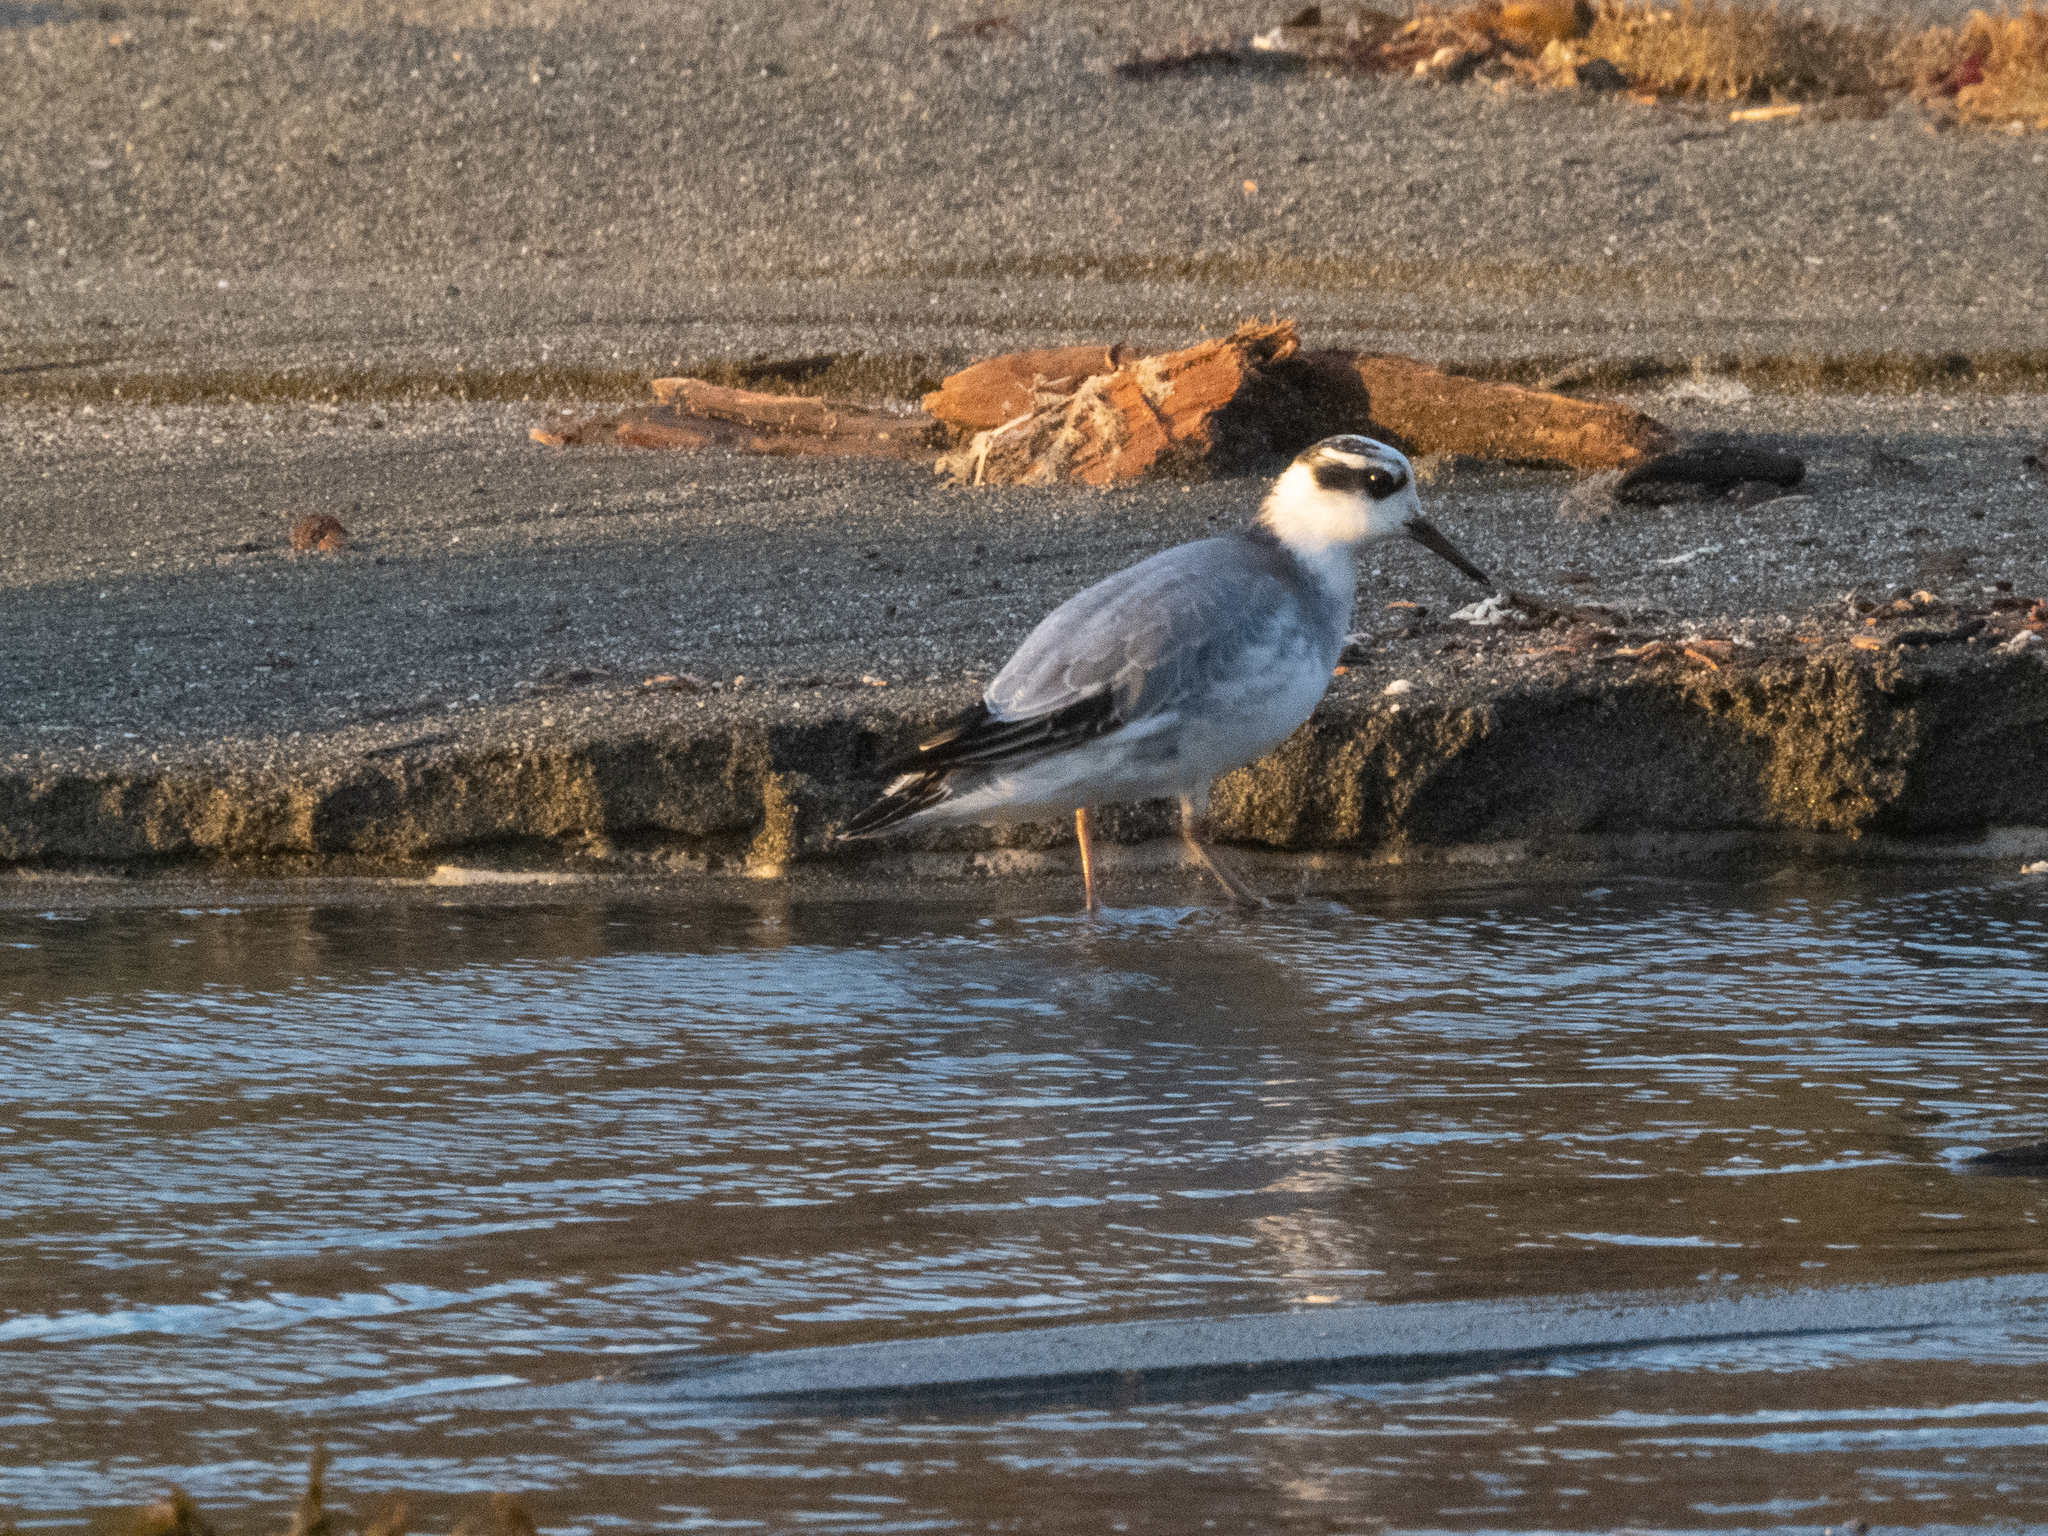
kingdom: Animalia
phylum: Chordata
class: Aves
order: Charadriiformes
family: Scolopacidae
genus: Phalaropus
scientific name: Phalaropus fulicarius
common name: Red phalarope
